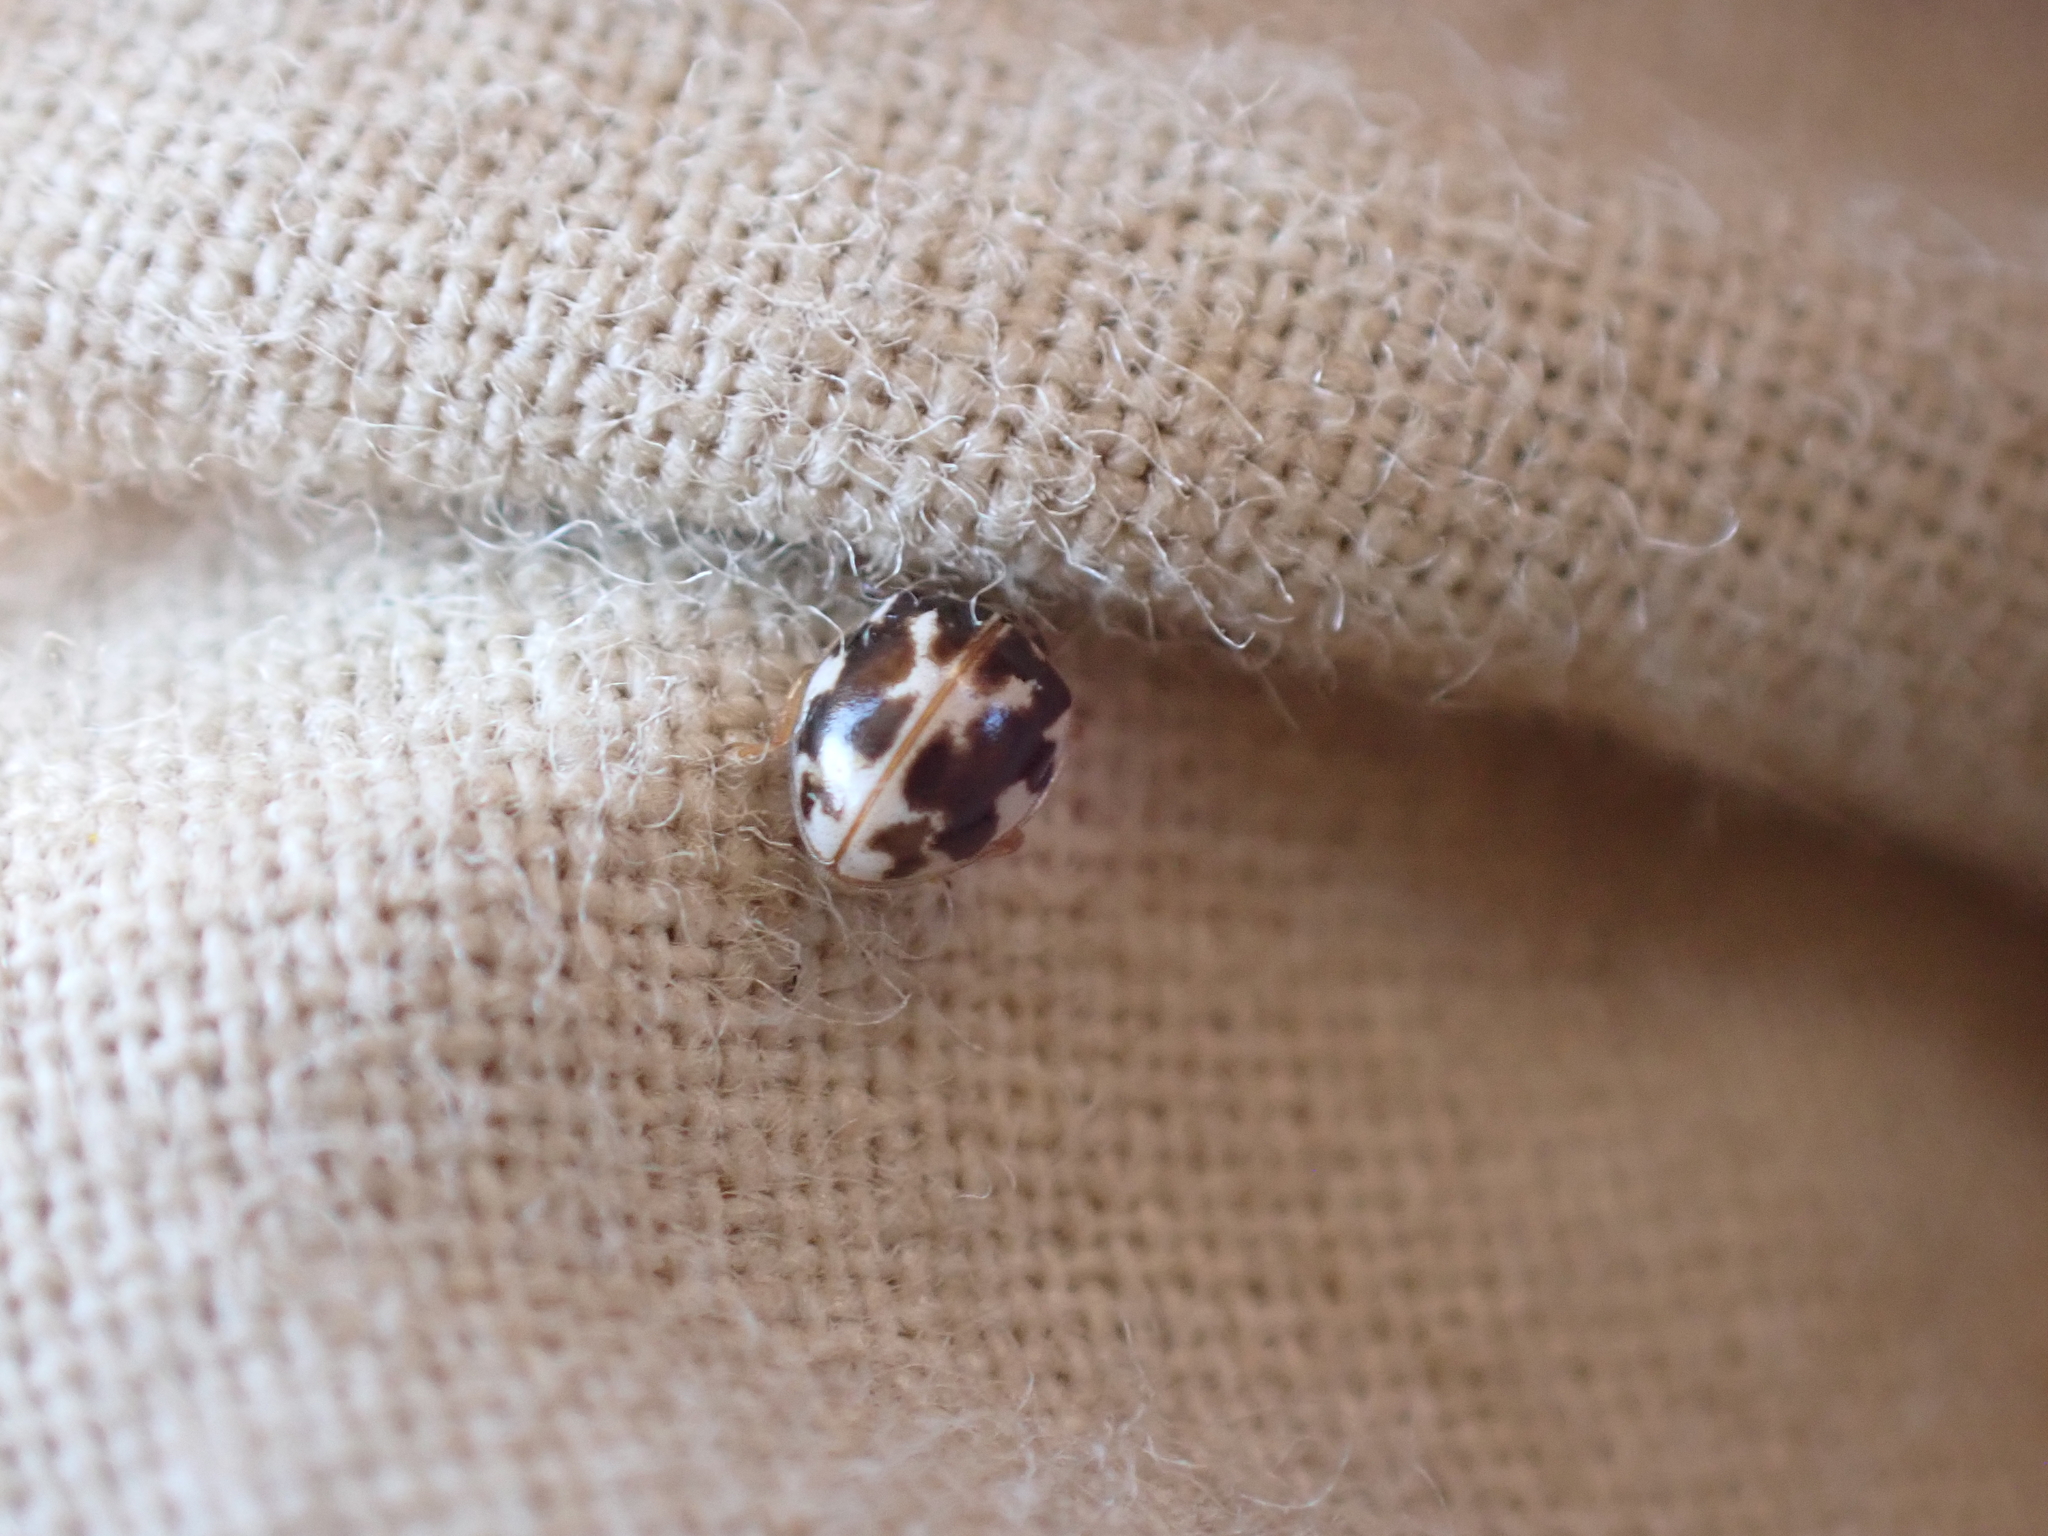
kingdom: Animalia
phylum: Arthropoda
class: Insecta
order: Coleoptera
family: Coccinellidae
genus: Psyllobora
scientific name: Psyllobora vigintimaculata
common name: Ladybird beetle
